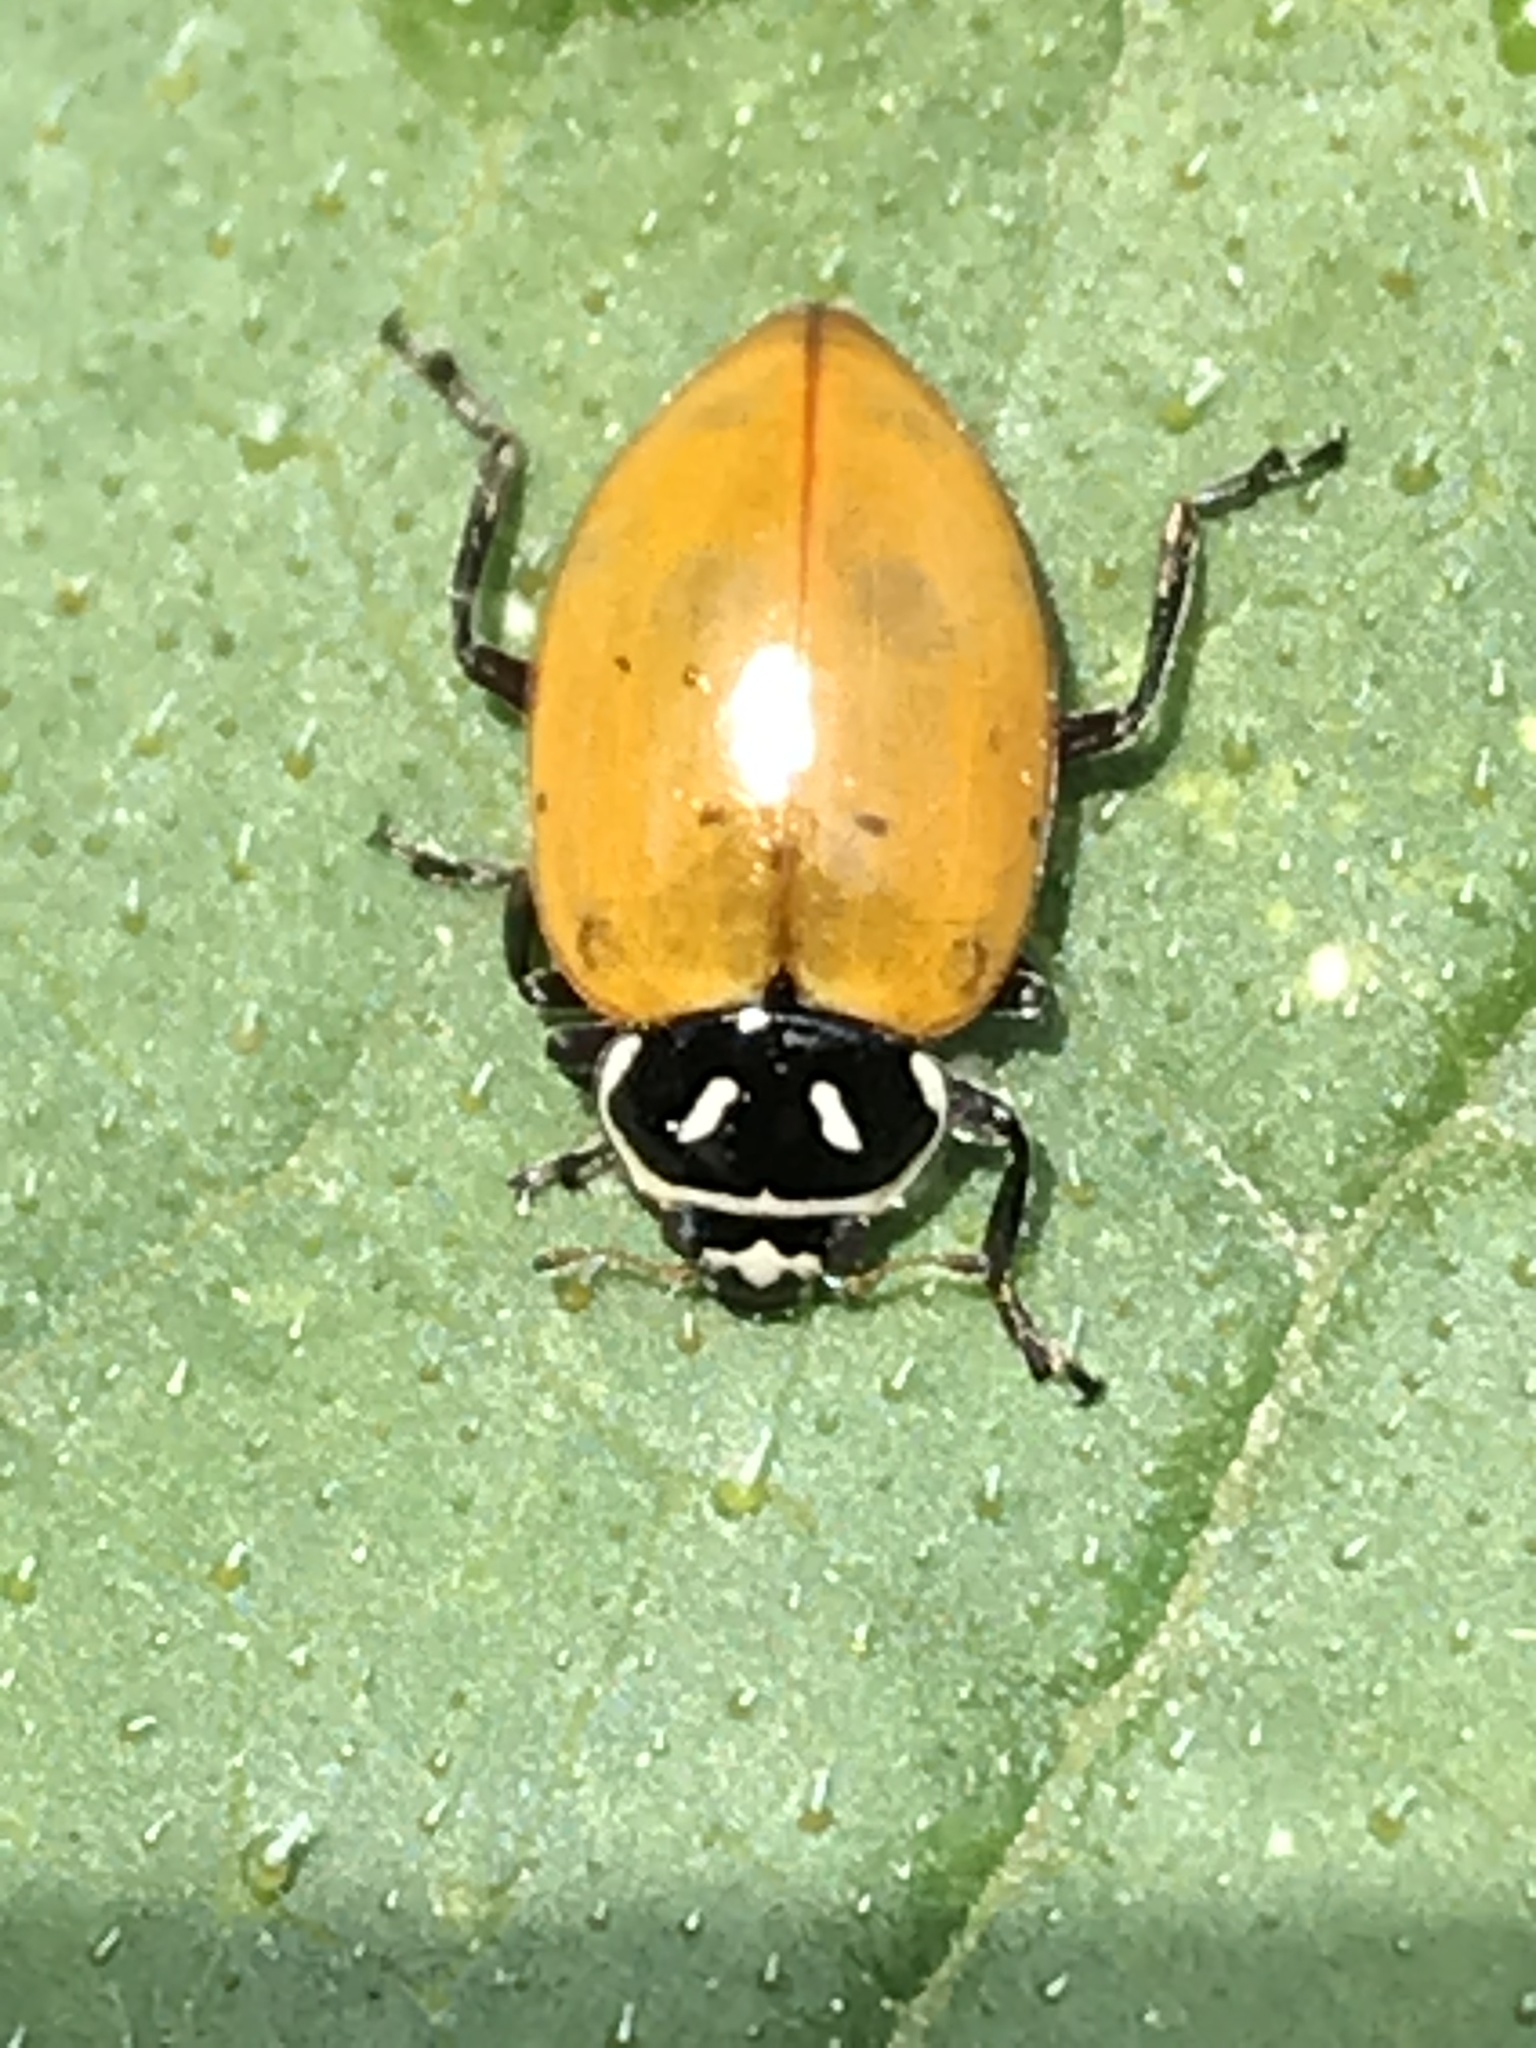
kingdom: Animalia
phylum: Arthropoda
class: Insecta
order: Coleoptera
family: Coccinellidae
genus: Hippodamia
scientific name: Hippodamia convergens
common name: Convergent lady beetle
